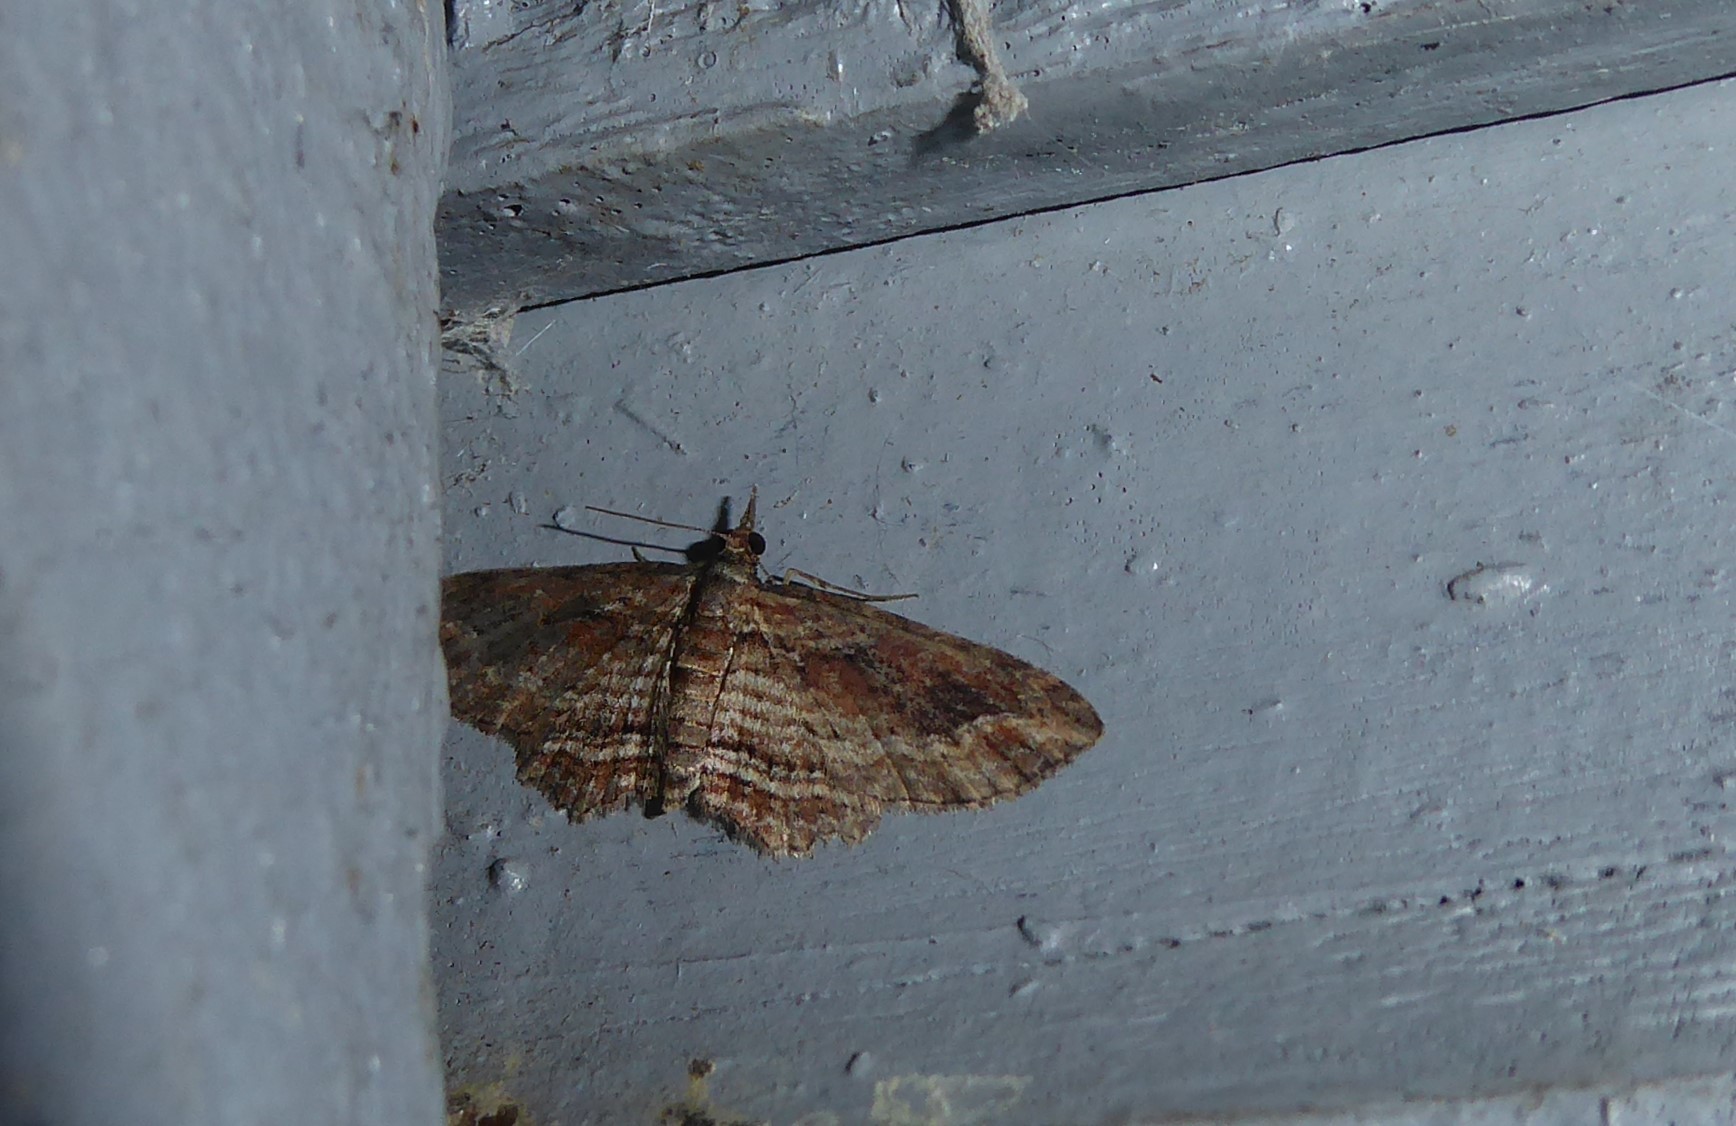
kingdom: Animalia
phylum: Arthropoda
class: Insecta
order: Lepidoptera
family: Geometridae
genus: Chloroclystis
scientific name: Chloroclystis filata
